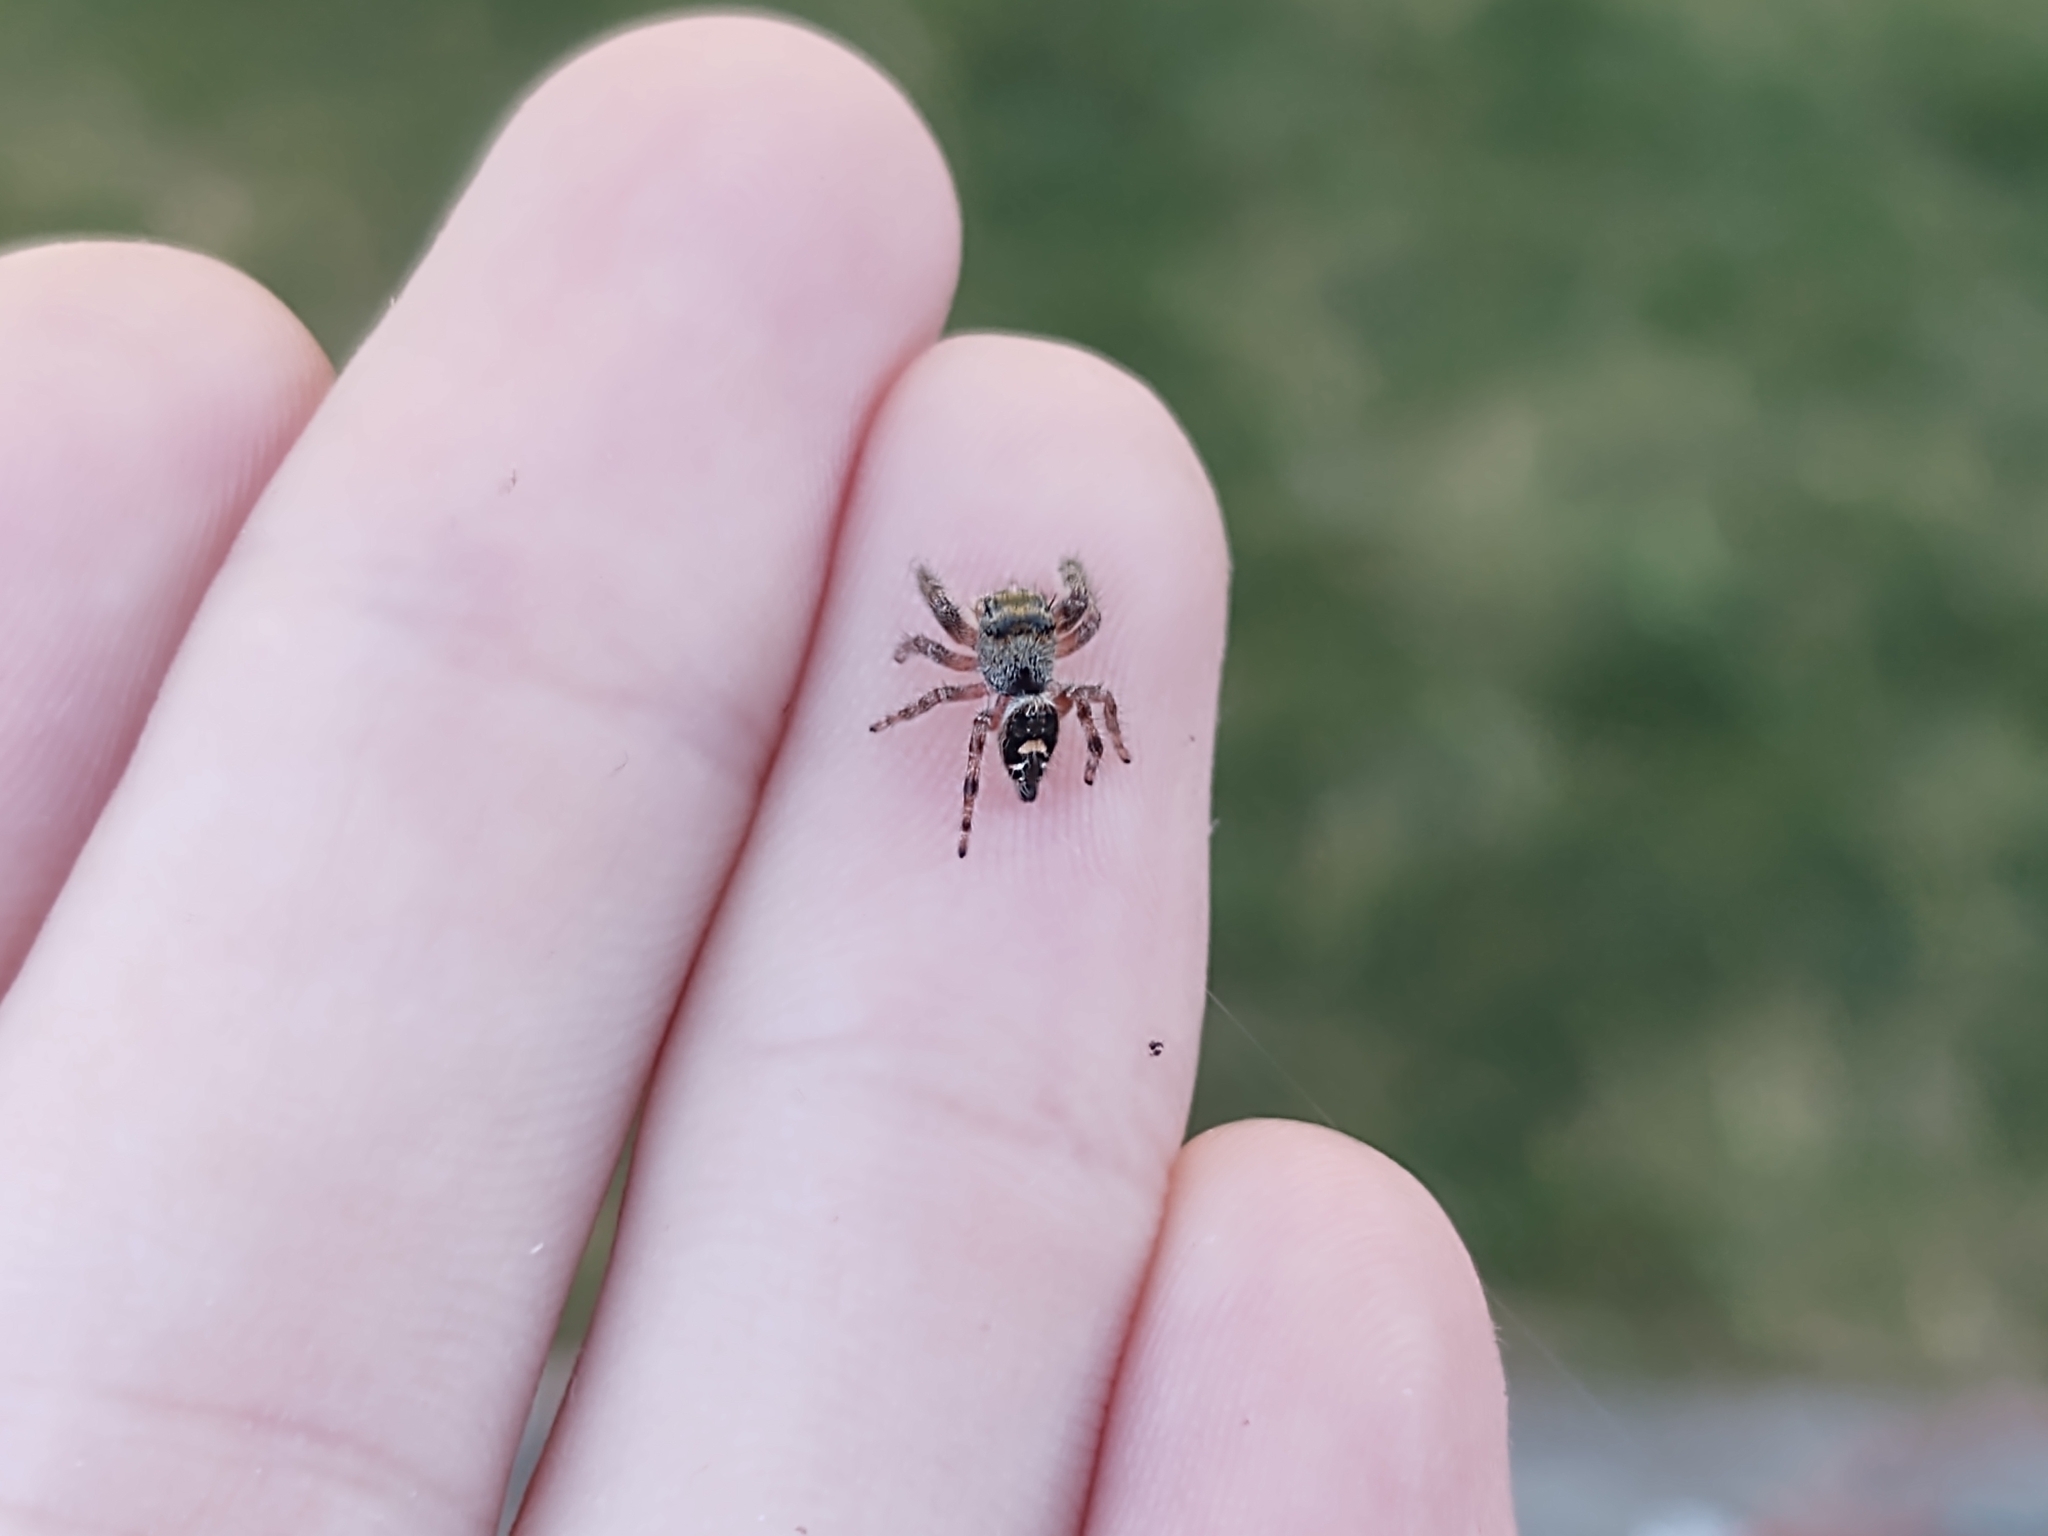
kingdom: Animalia
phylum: Arthropoda
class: Arachnida
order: Araneae
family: Salticidae
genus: Phidippus
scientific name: Phidippus audax
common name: Bold jumper
